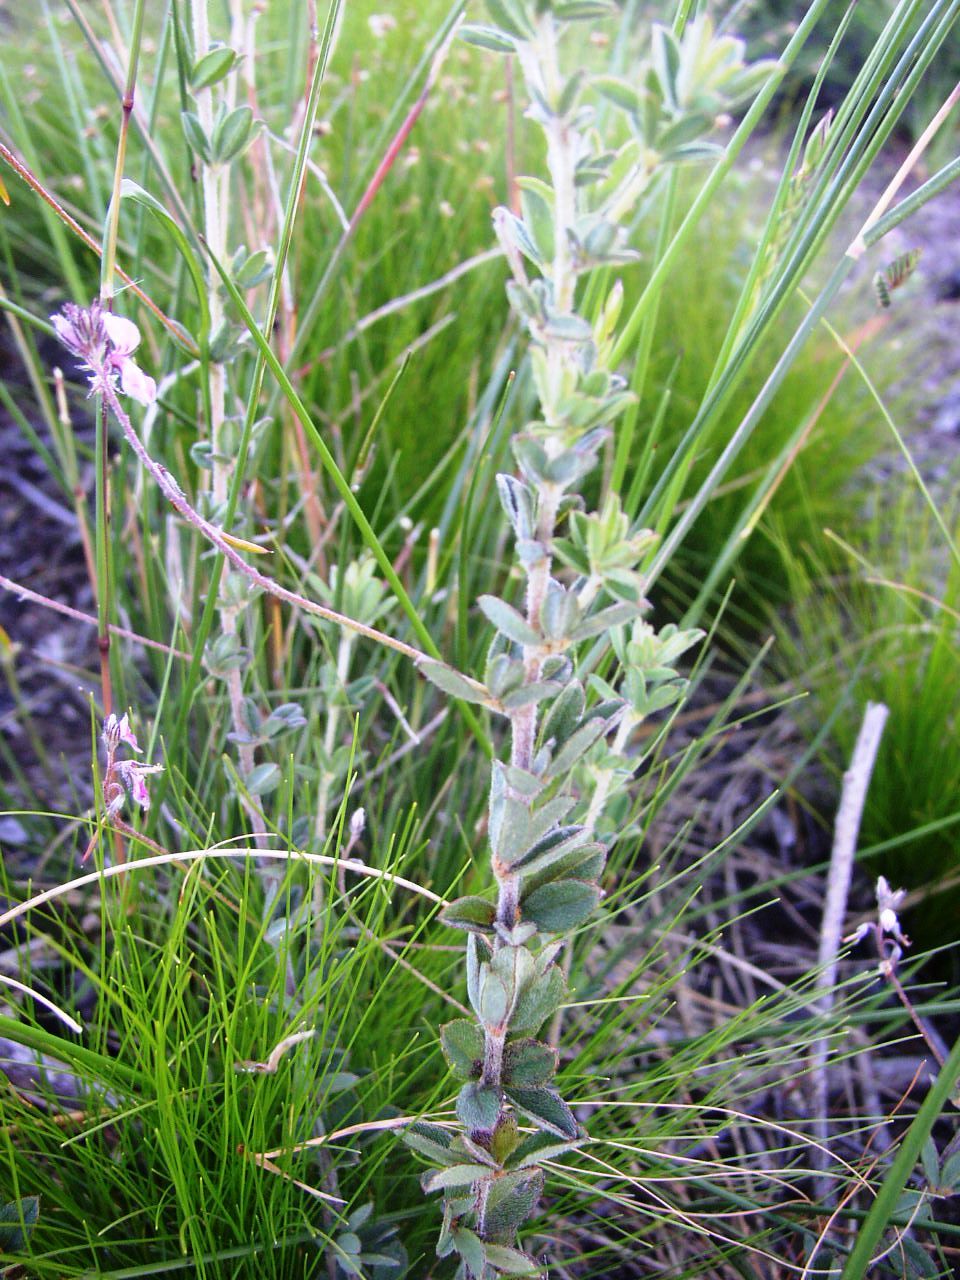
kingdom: Plantae
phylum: Tracheophyta
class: Magnoliopsida
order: Fabales
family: Fabaceae
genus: Indigofera
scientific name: Indigofera filiformis
